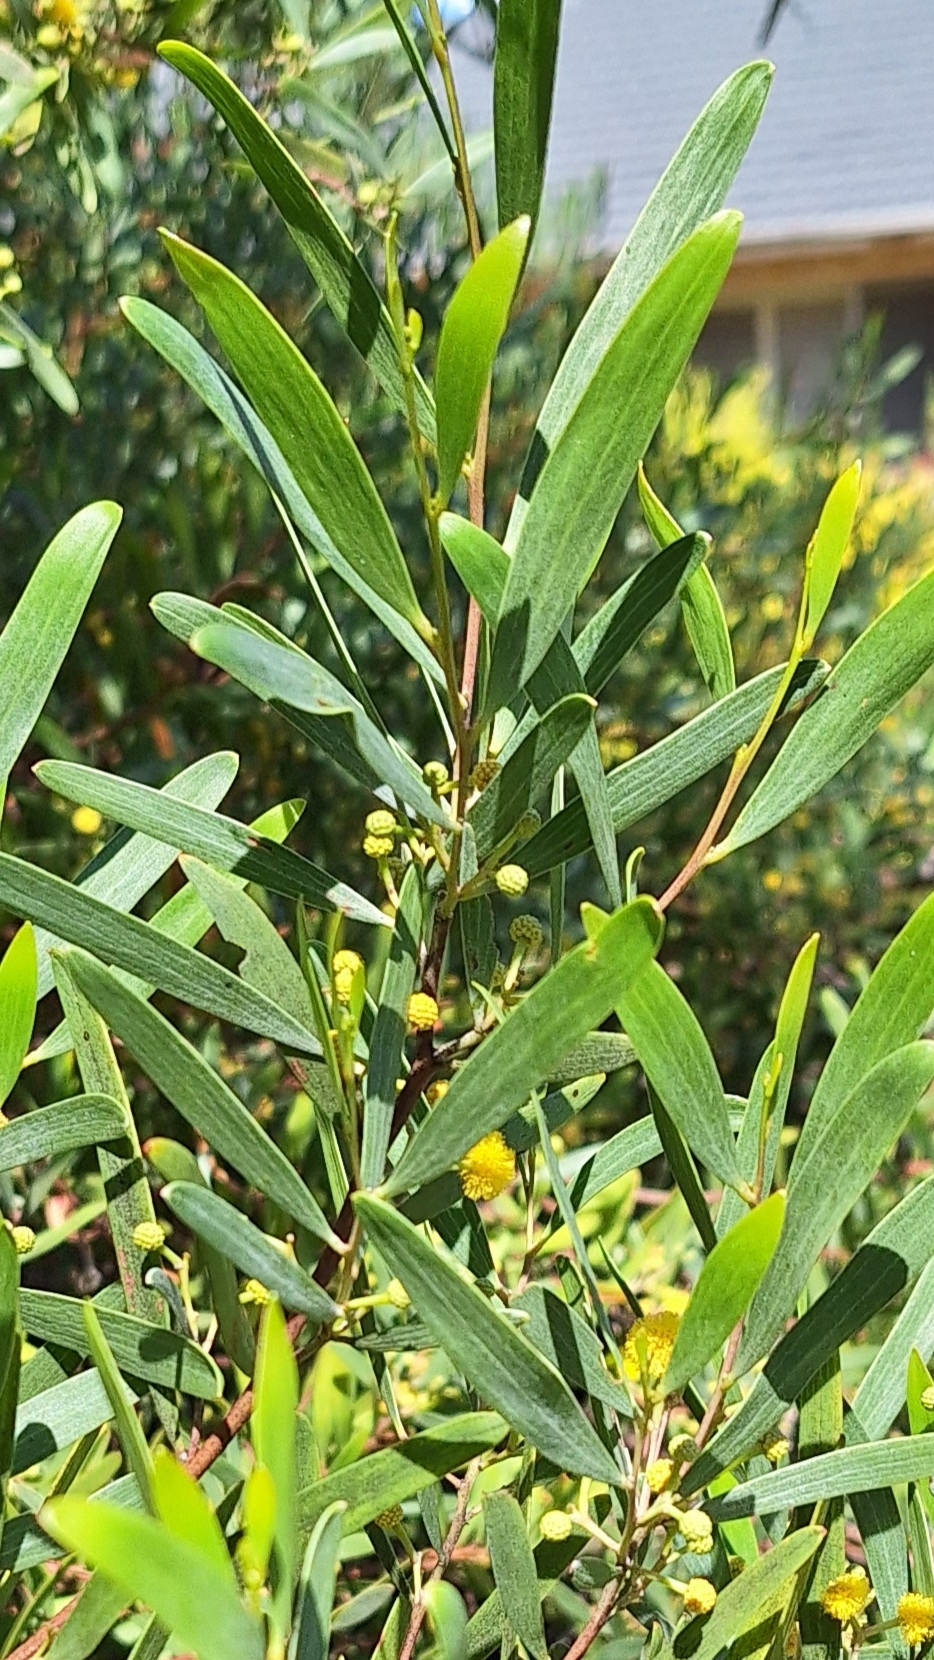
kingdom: Plantae
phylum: Tracheophyta
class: Magnoliopsida
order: Fabales
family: Fabaceae
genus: Acacia
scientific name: Acacia cyclops
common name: Coastal wattle
